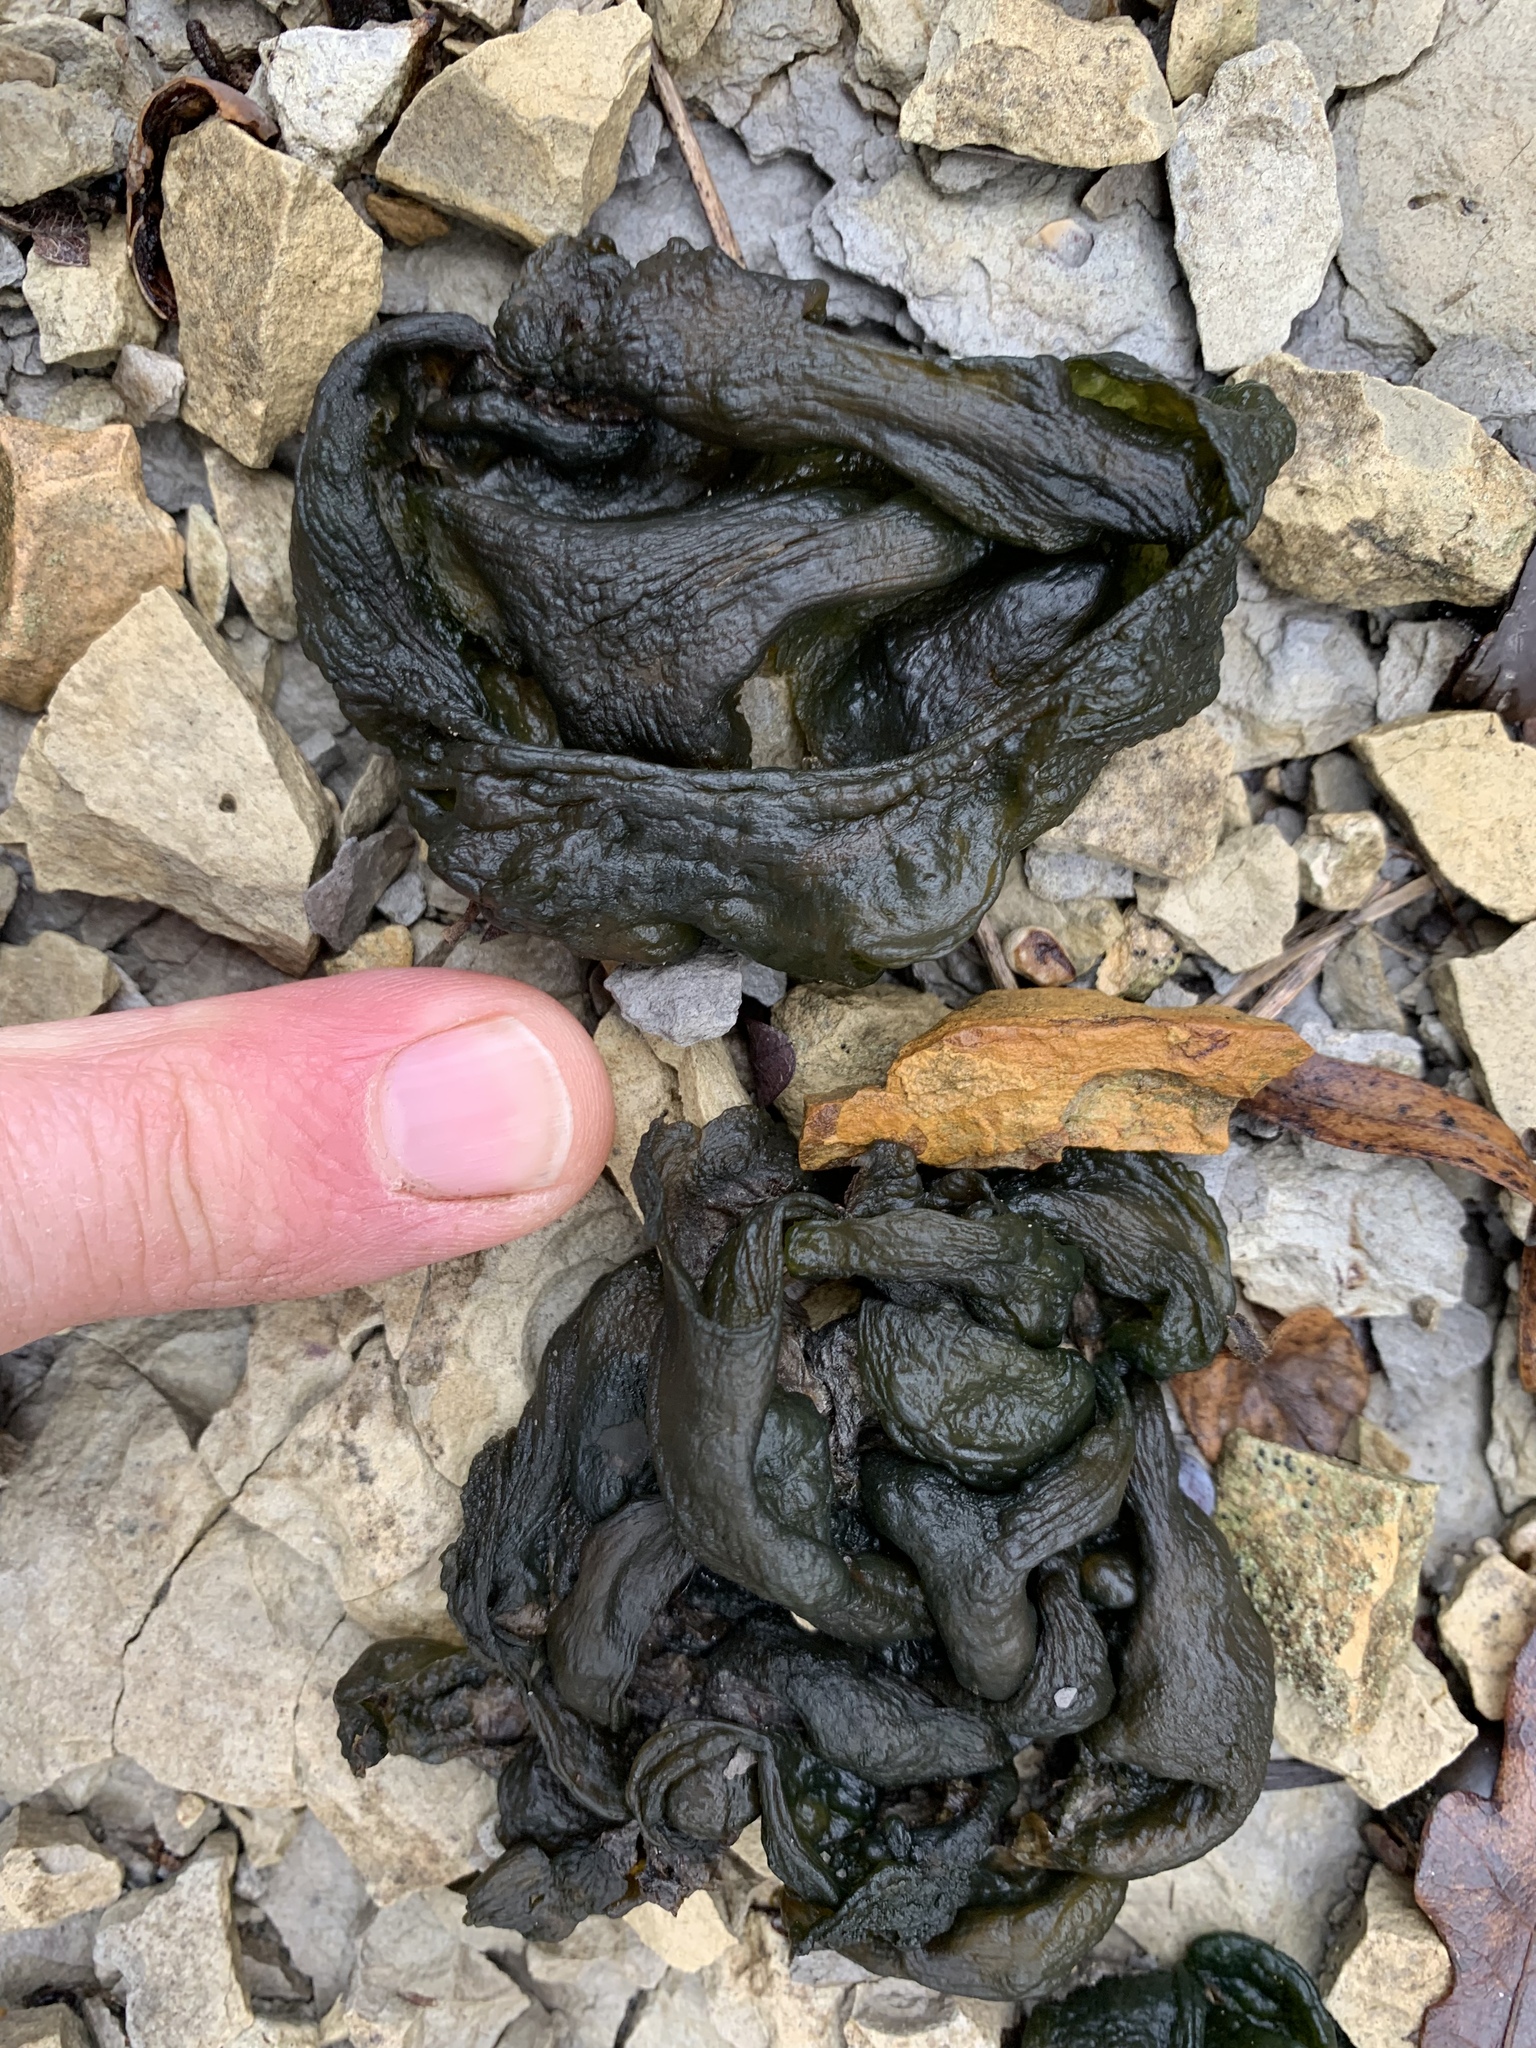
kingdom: Bacteria
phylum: Cyanobacteria
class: Cyanobacteriia
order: Cyanobacteriales
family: Nostocaceae
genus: Nostoc
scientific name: Nostoc commune
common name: Star jelly
